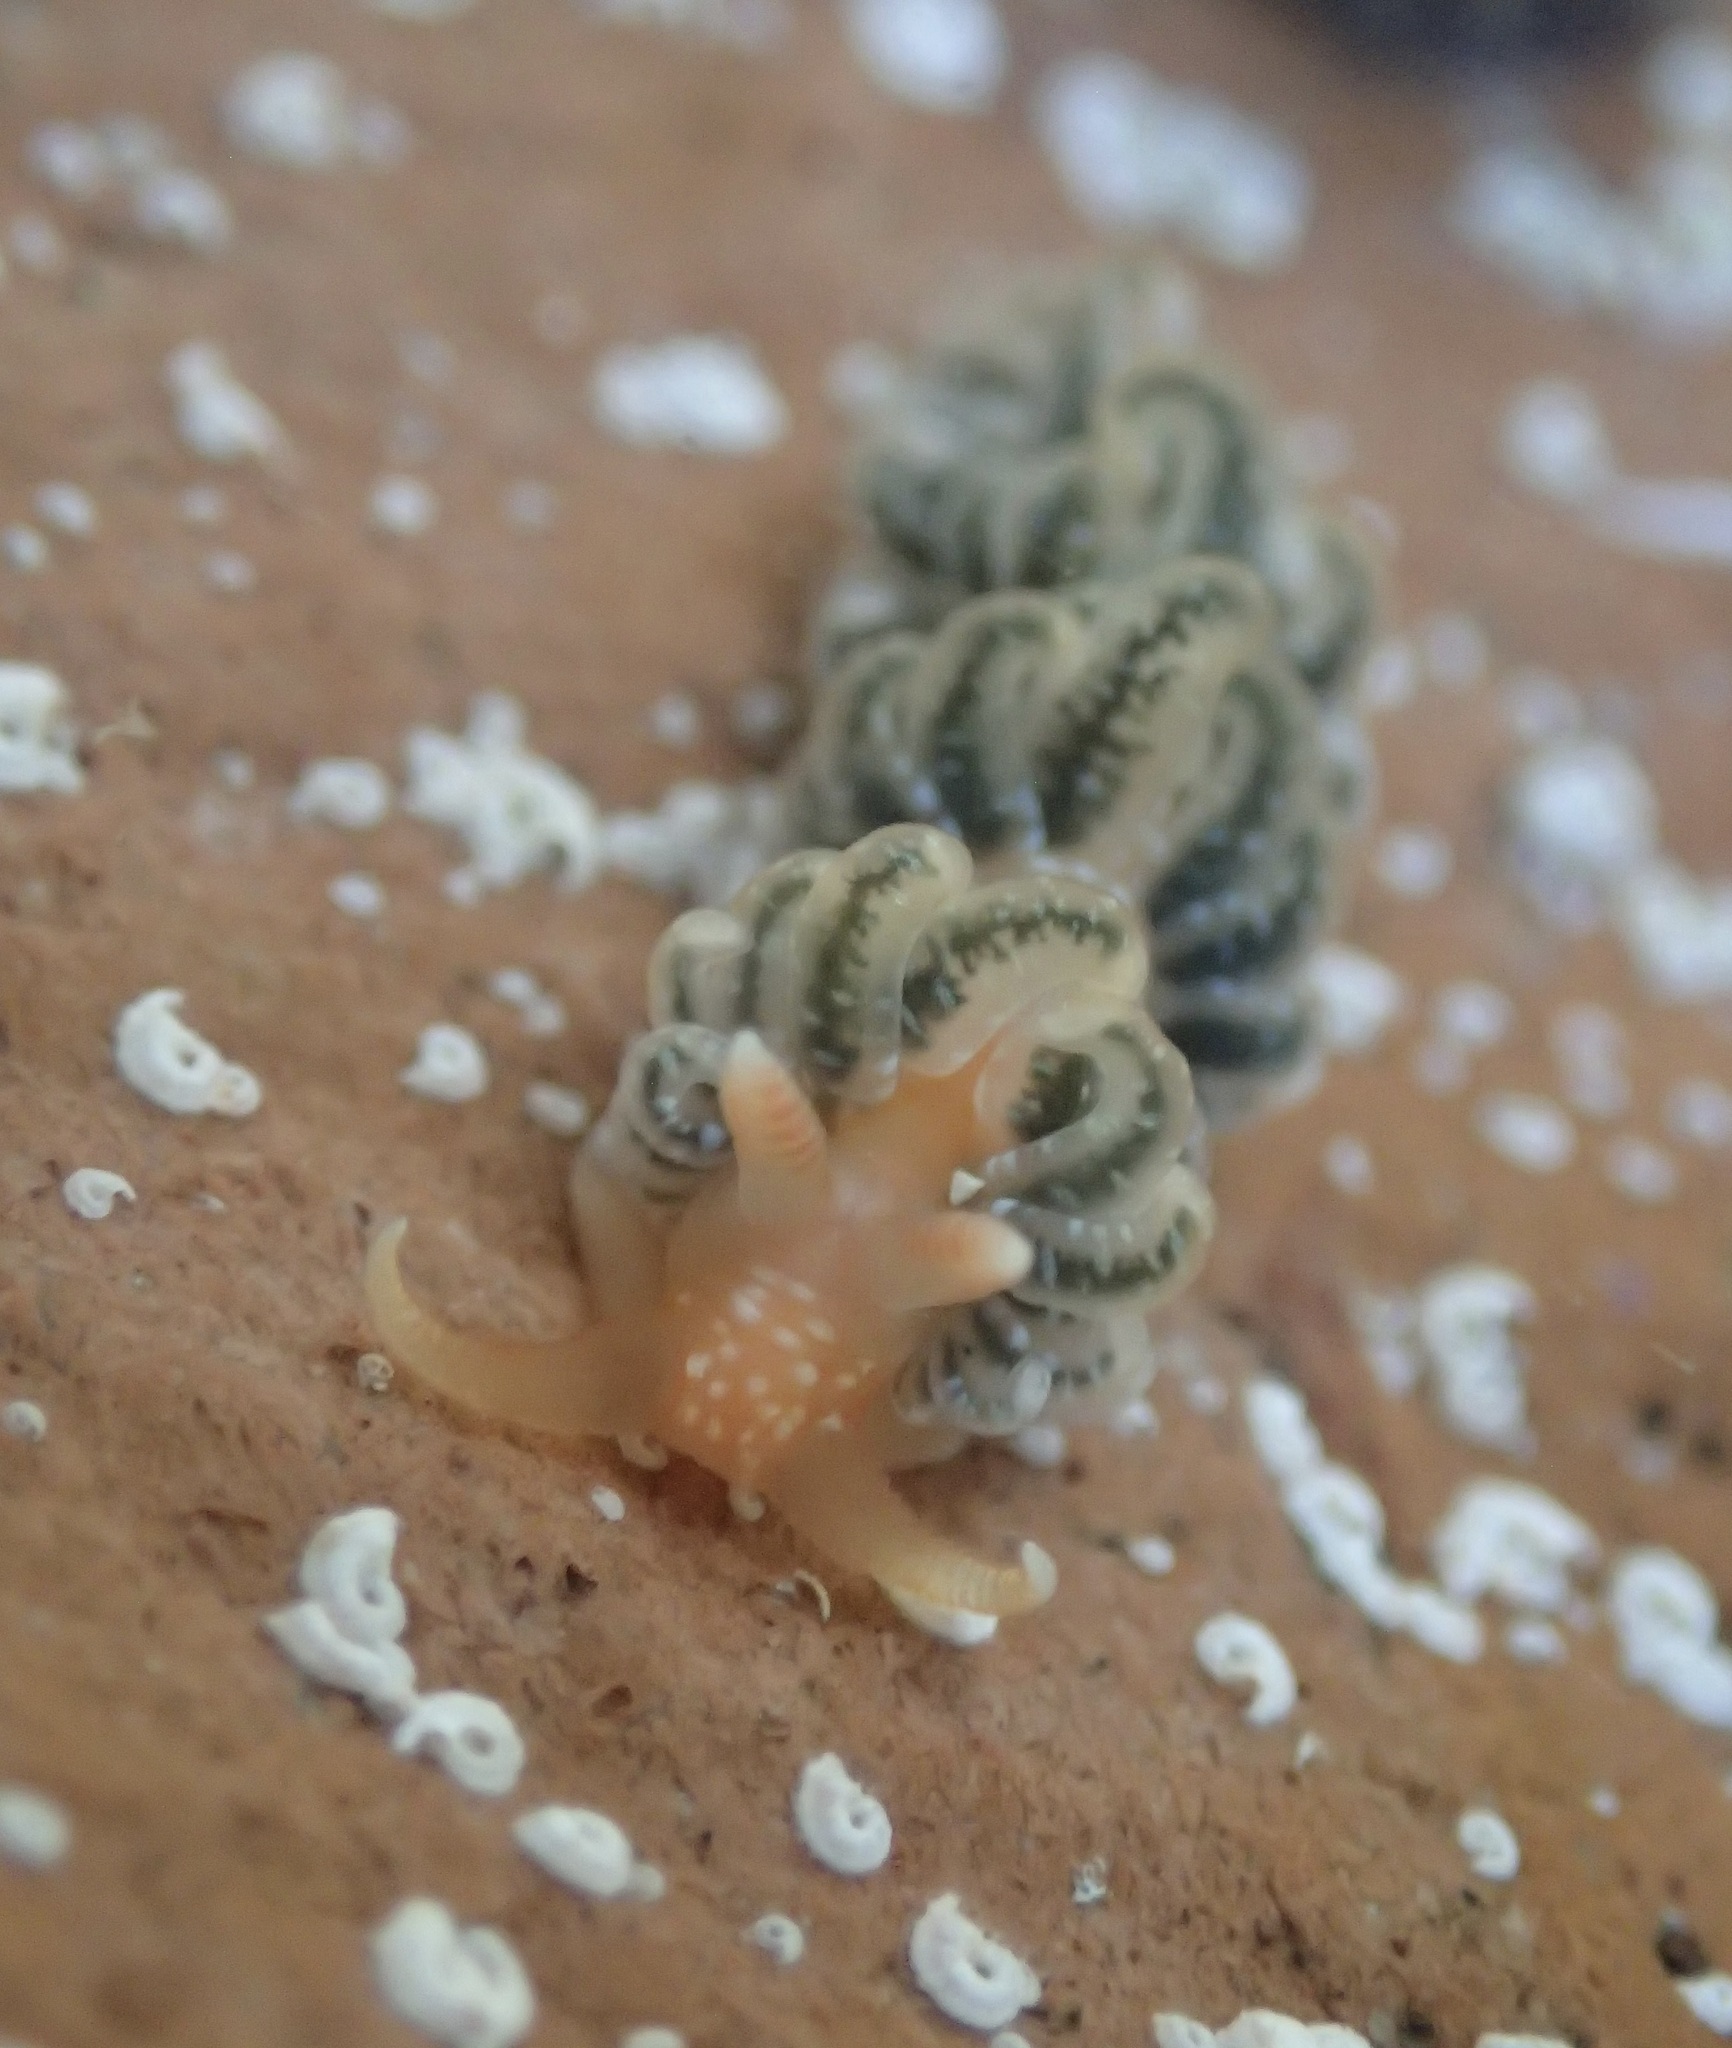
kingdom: Animalia
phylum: Mollusca
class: Gastropoda
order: Nudibranchia
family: Aeolidiidae
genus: Spurilla
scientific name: Spurilla braziliana
